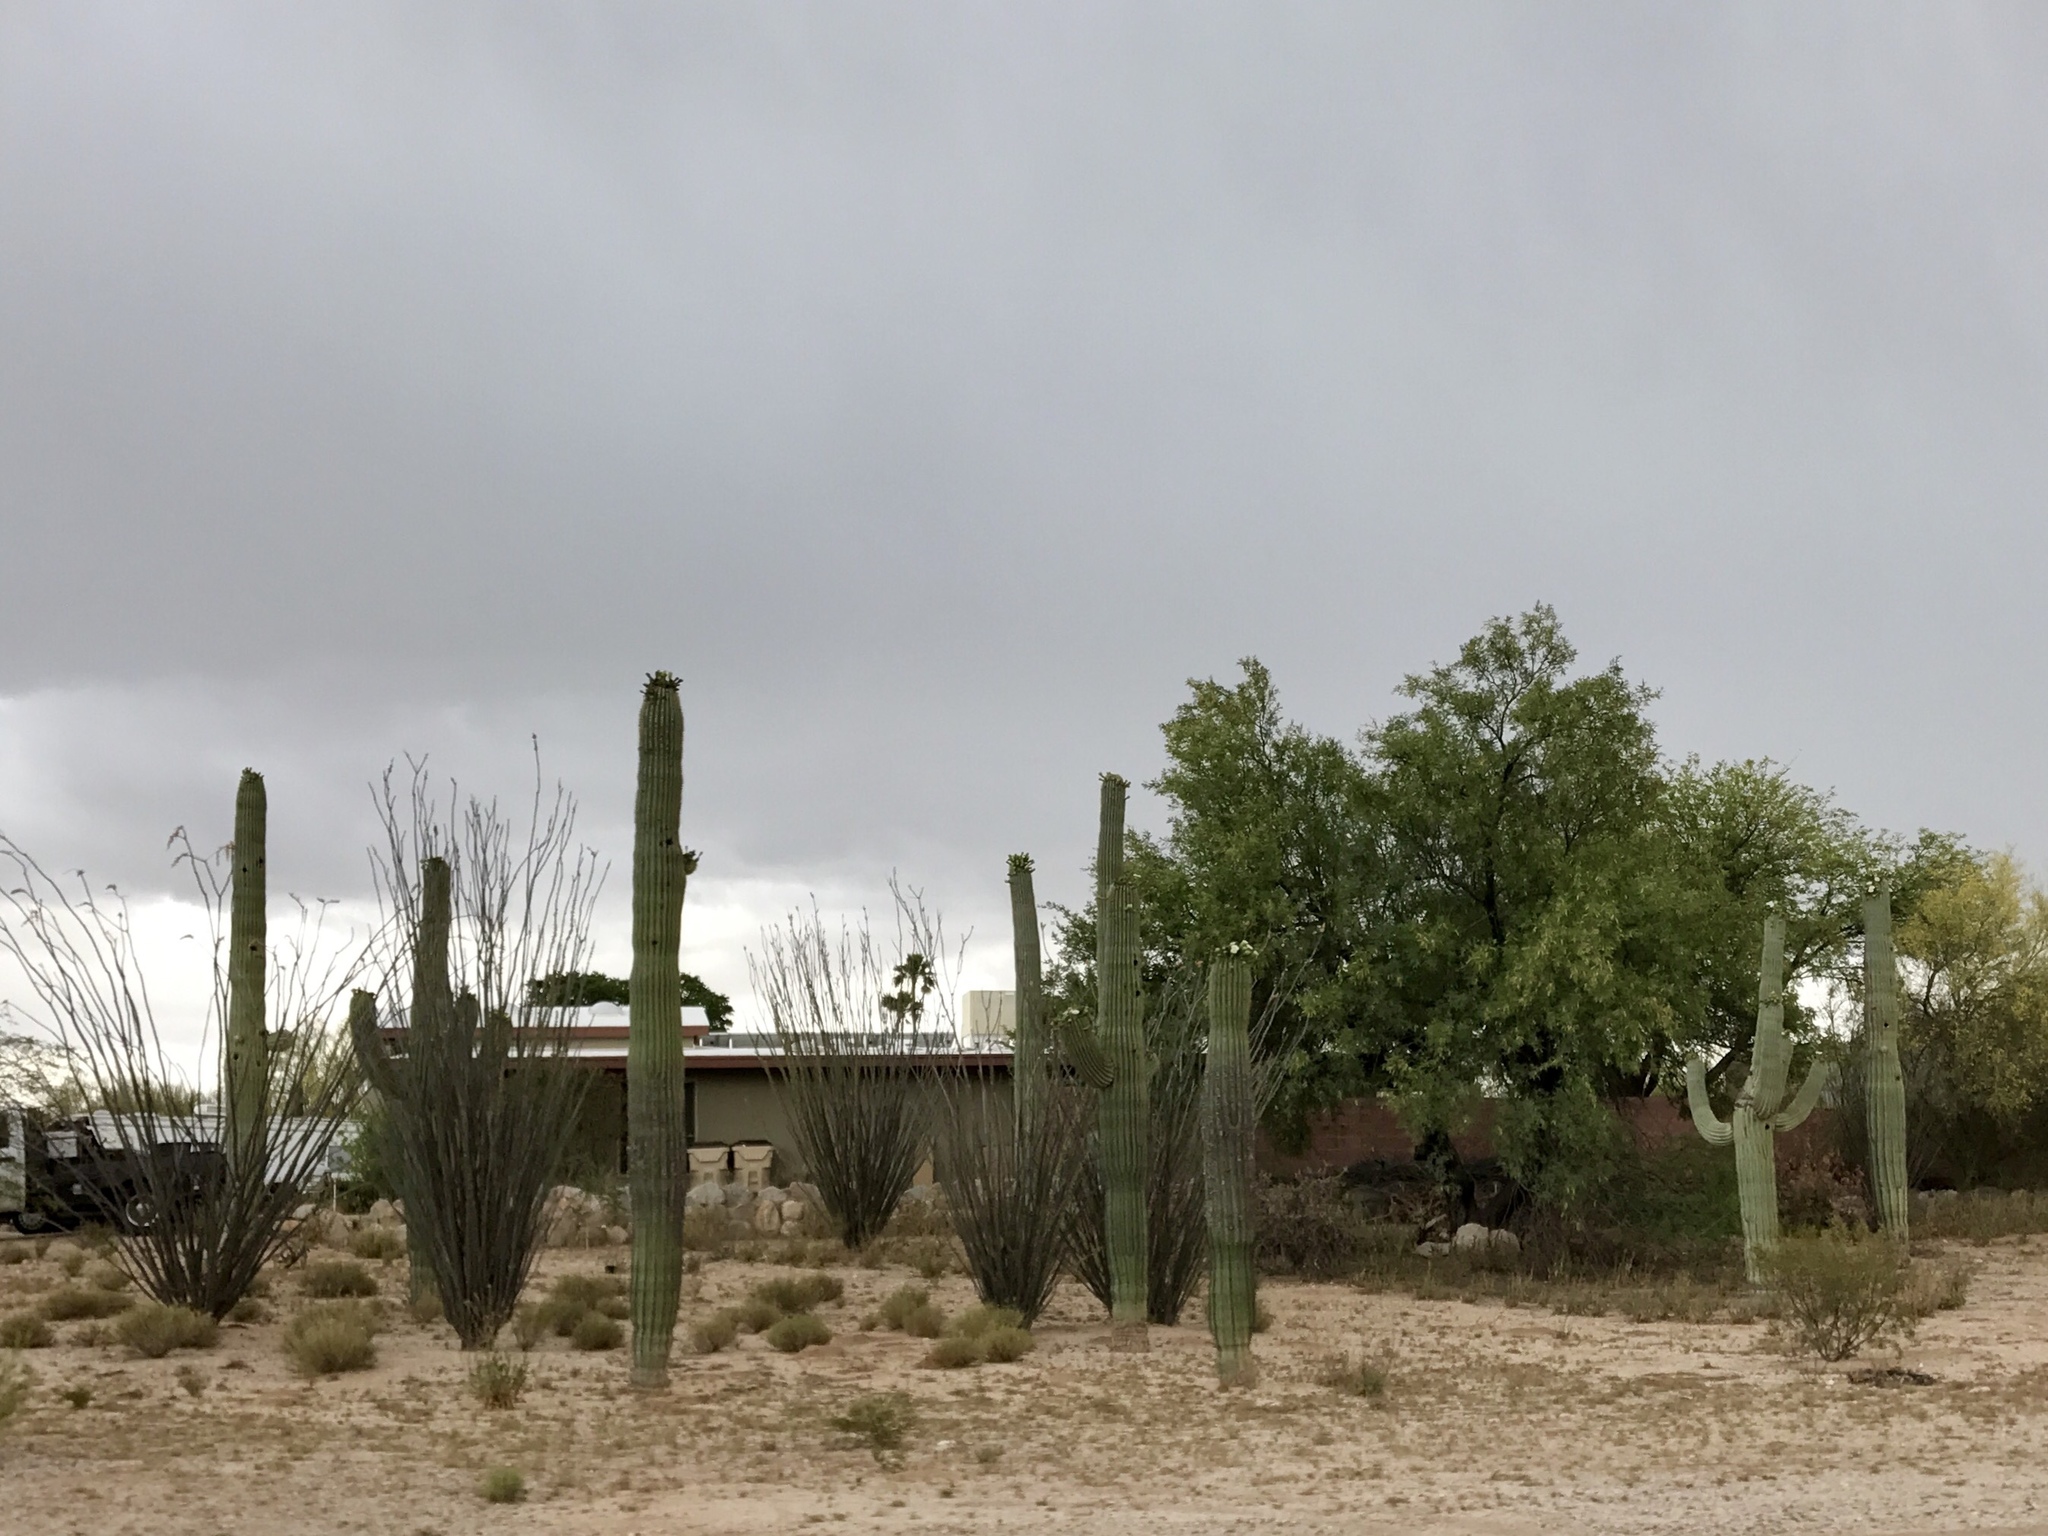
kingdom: Plantae
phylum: Tracheophyta
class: Magnoliopsida
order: Caryophyllales
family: Cactaceae
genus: Carnegiea
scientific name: Carnegiea gigantea
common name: Saguaro
